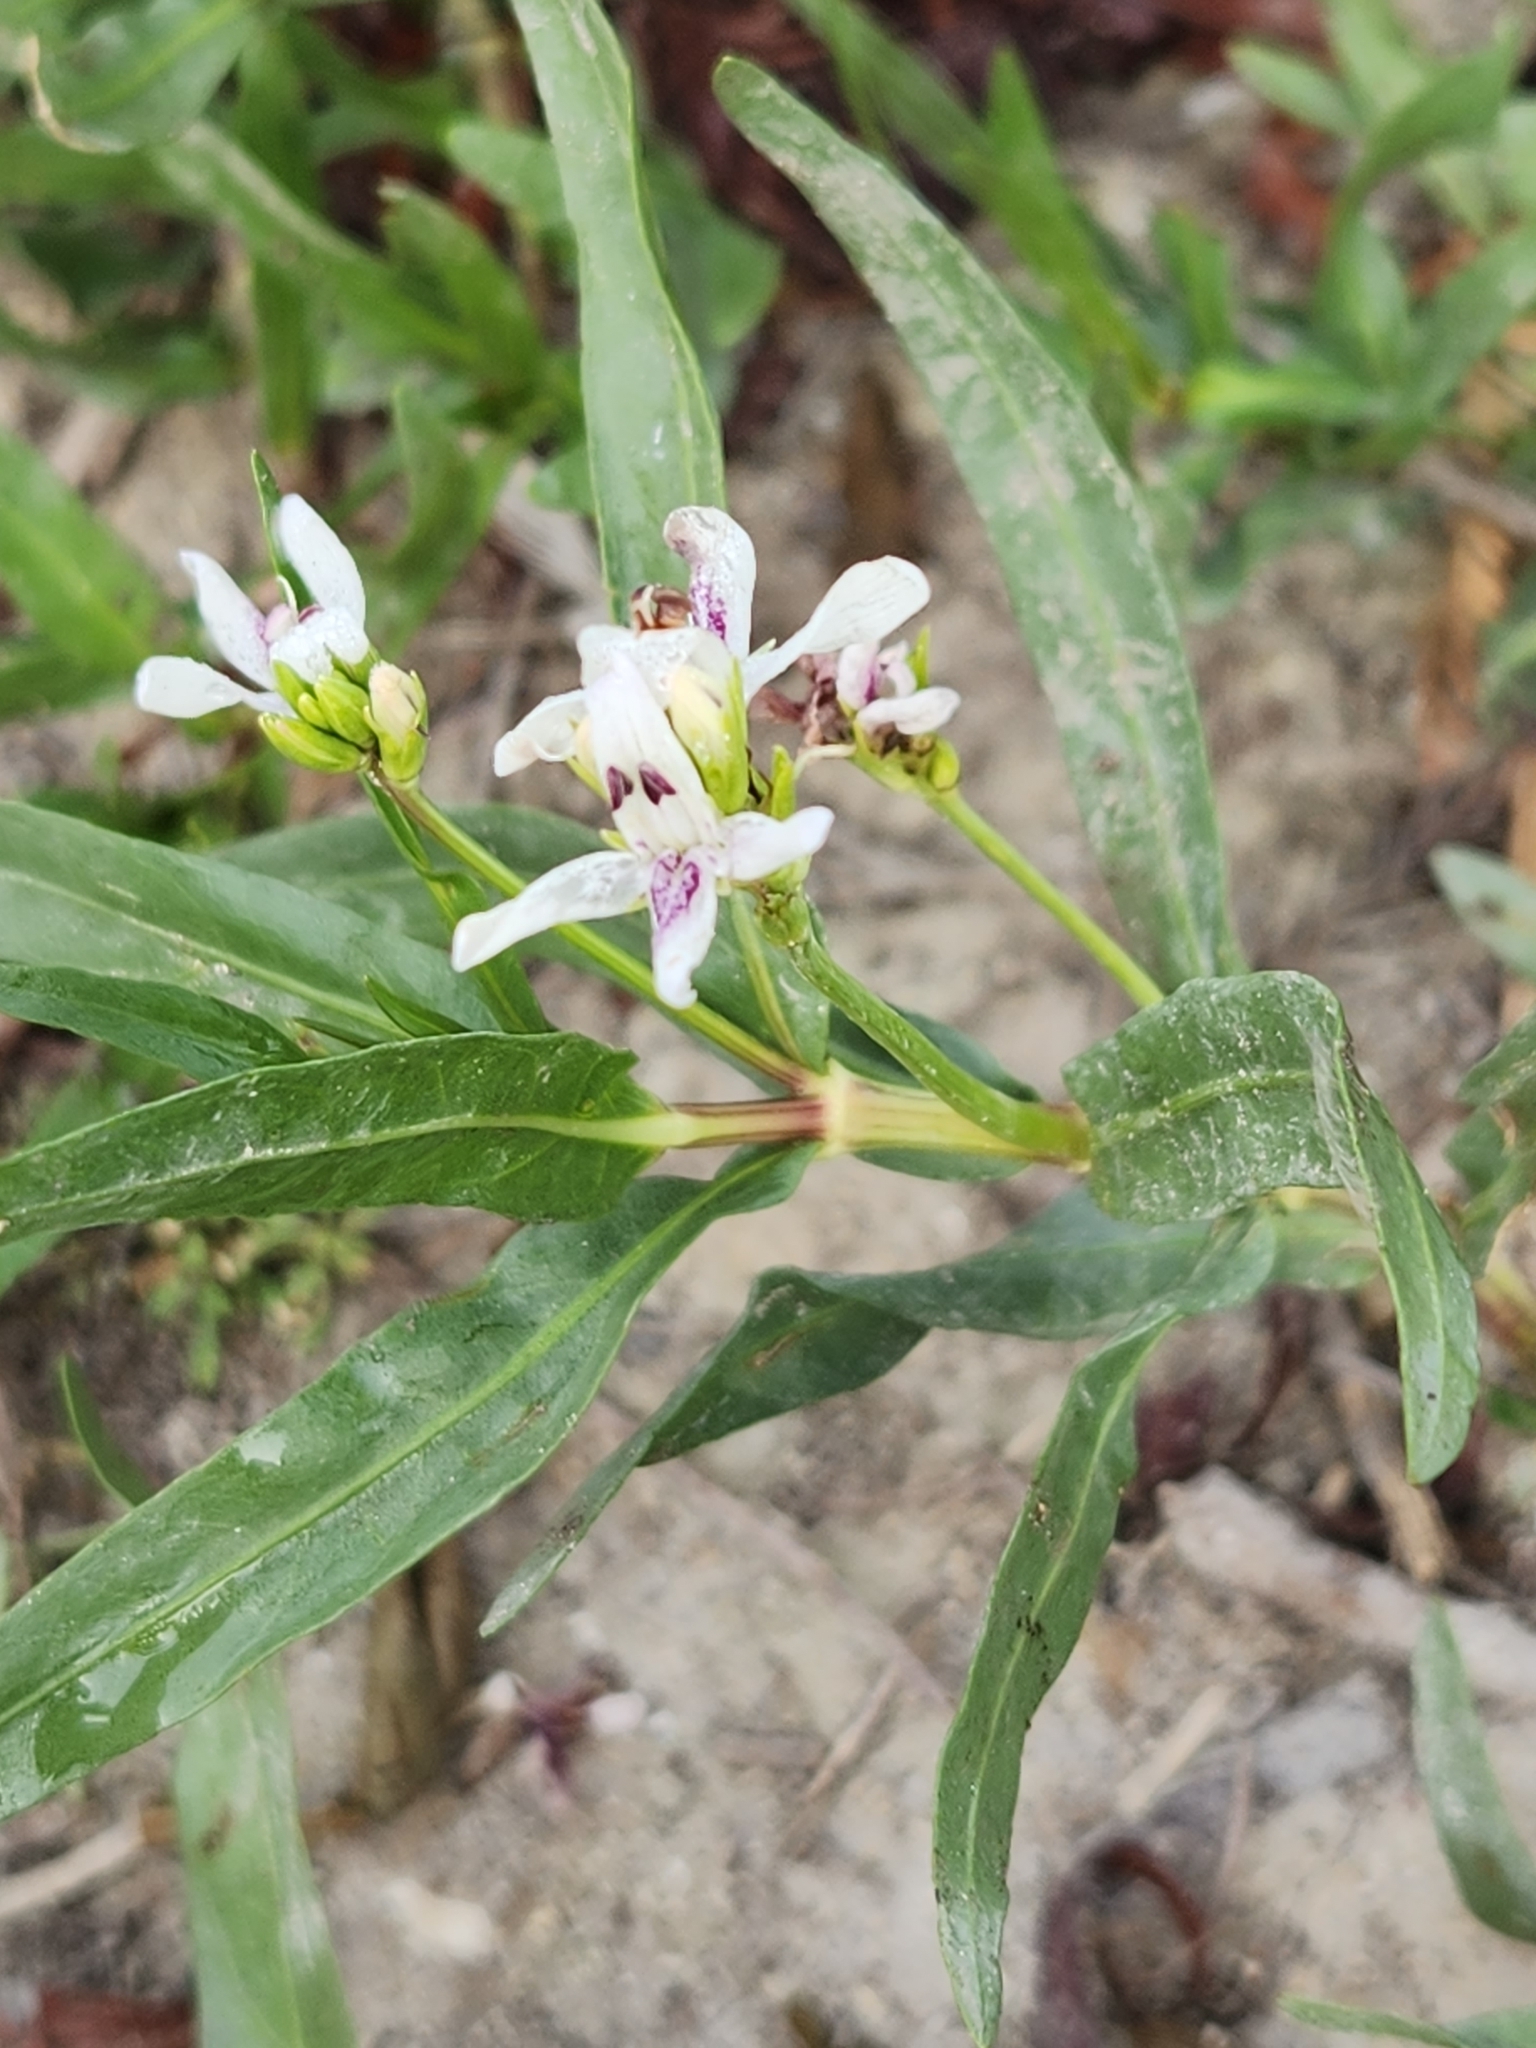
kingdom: Plantae
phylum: Tracheophyta
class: Magnoliopsida
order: Lamiales
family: Acanthaceae
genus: Dianthera
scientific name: Dianthera americana
